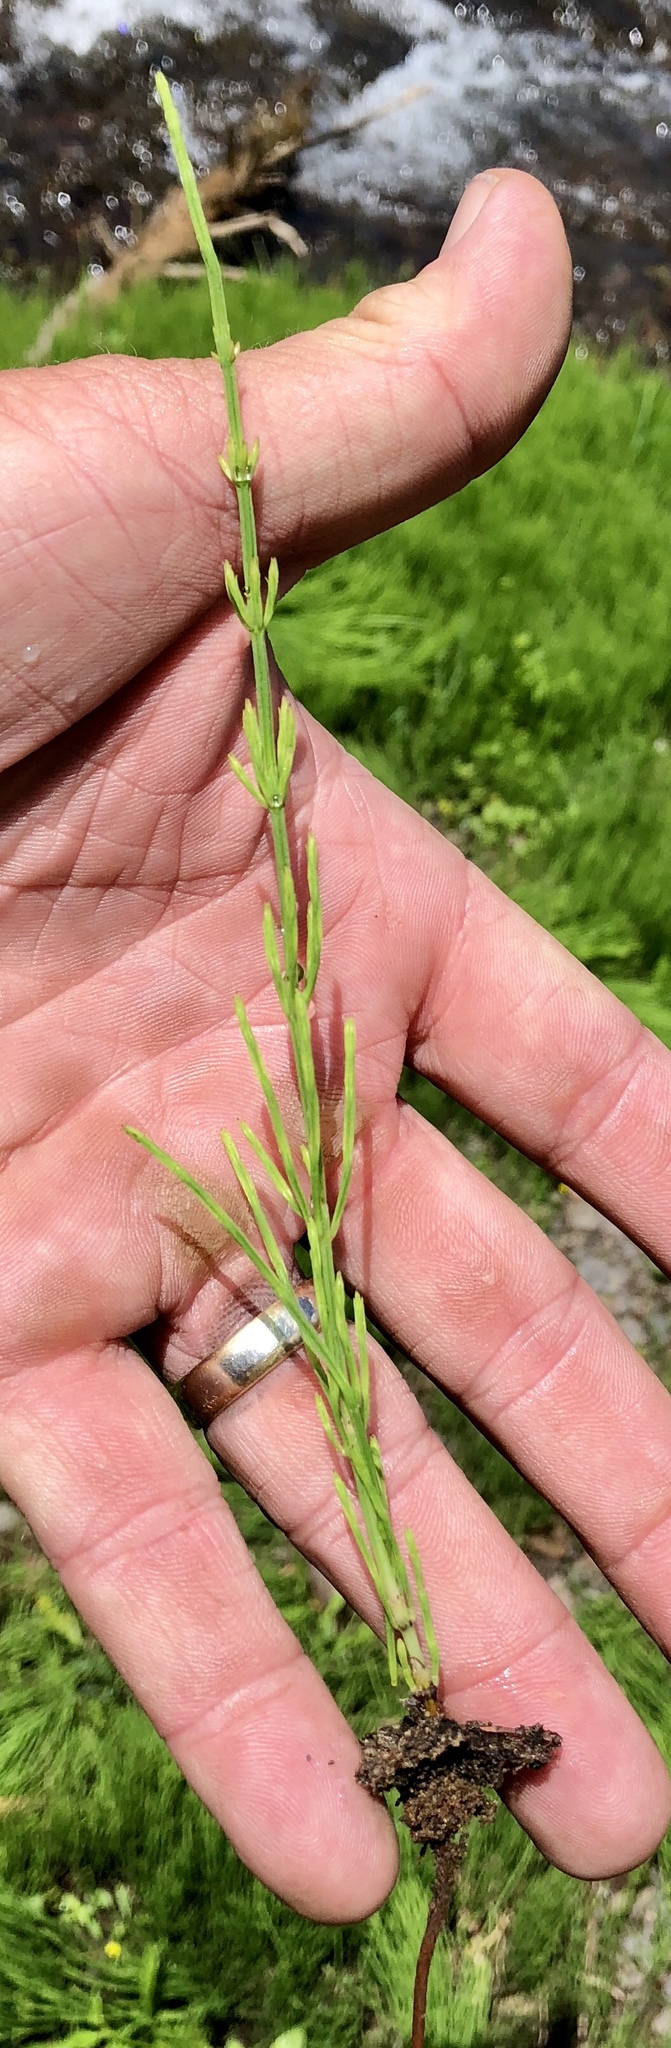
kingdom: Plantae
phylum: Tracheophyta
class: Polypodiopsida
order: Equisetales
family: Equisetaceae
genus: Equisetum
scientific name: Equisetum arvense
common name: Field horsetail
